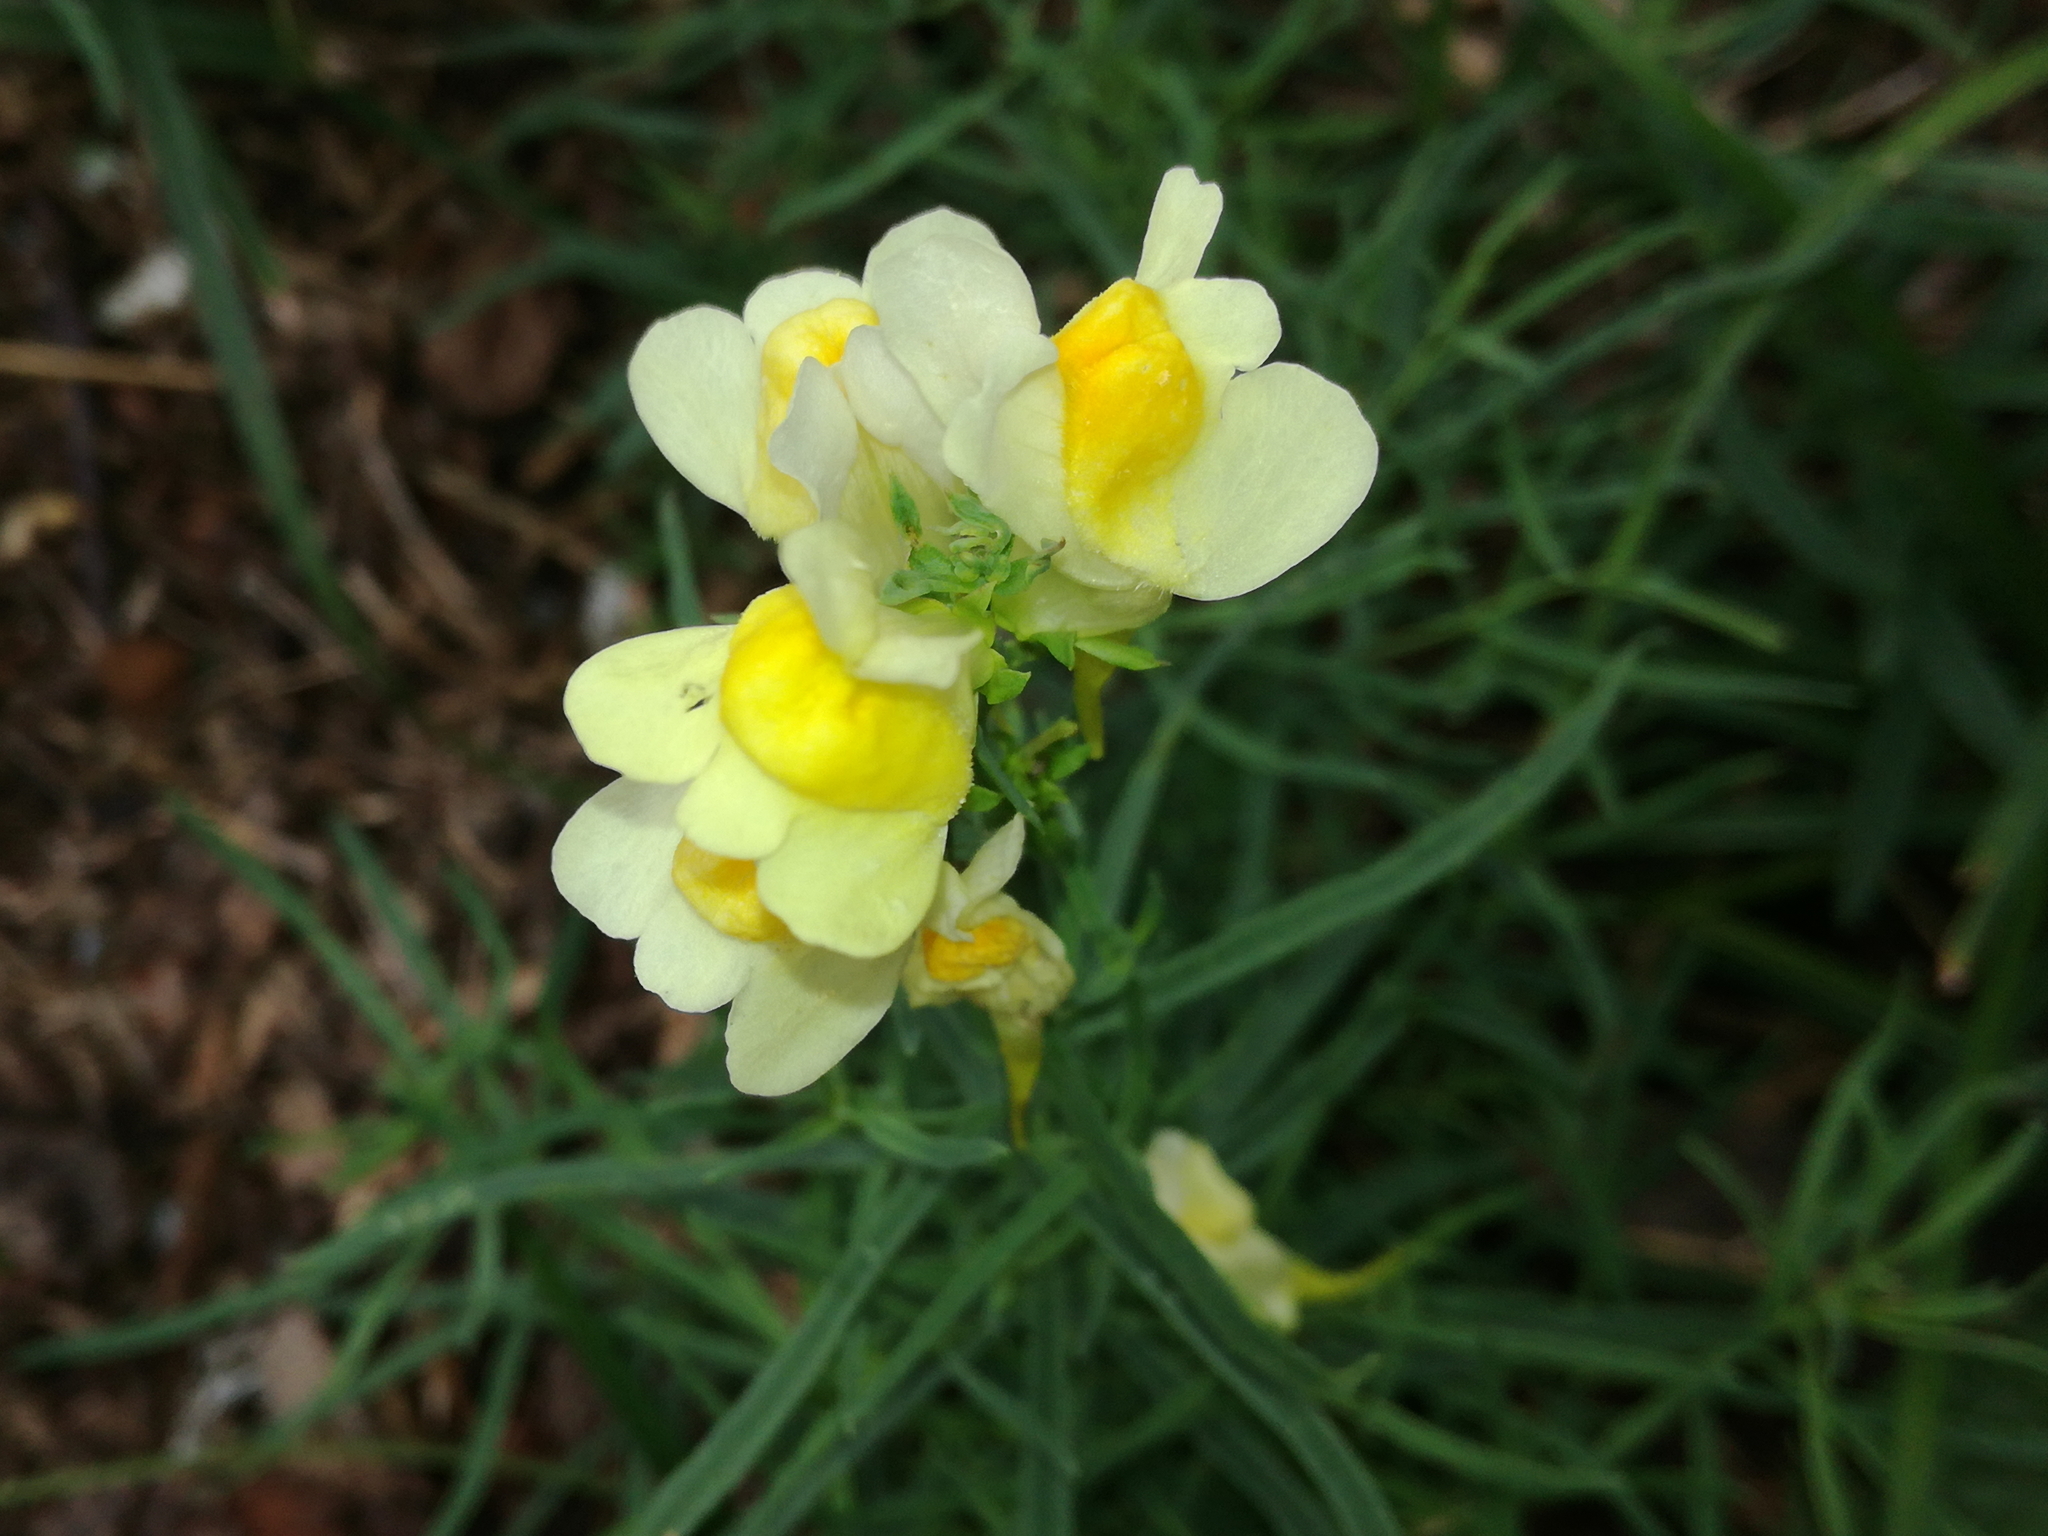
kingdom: Plantae
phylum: Tracheophyta
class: Magnoliopsida
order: Lamiales
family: Plantaginaceae
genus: Linaria
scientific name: Linaria vulgaris
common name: Butter and eggs
